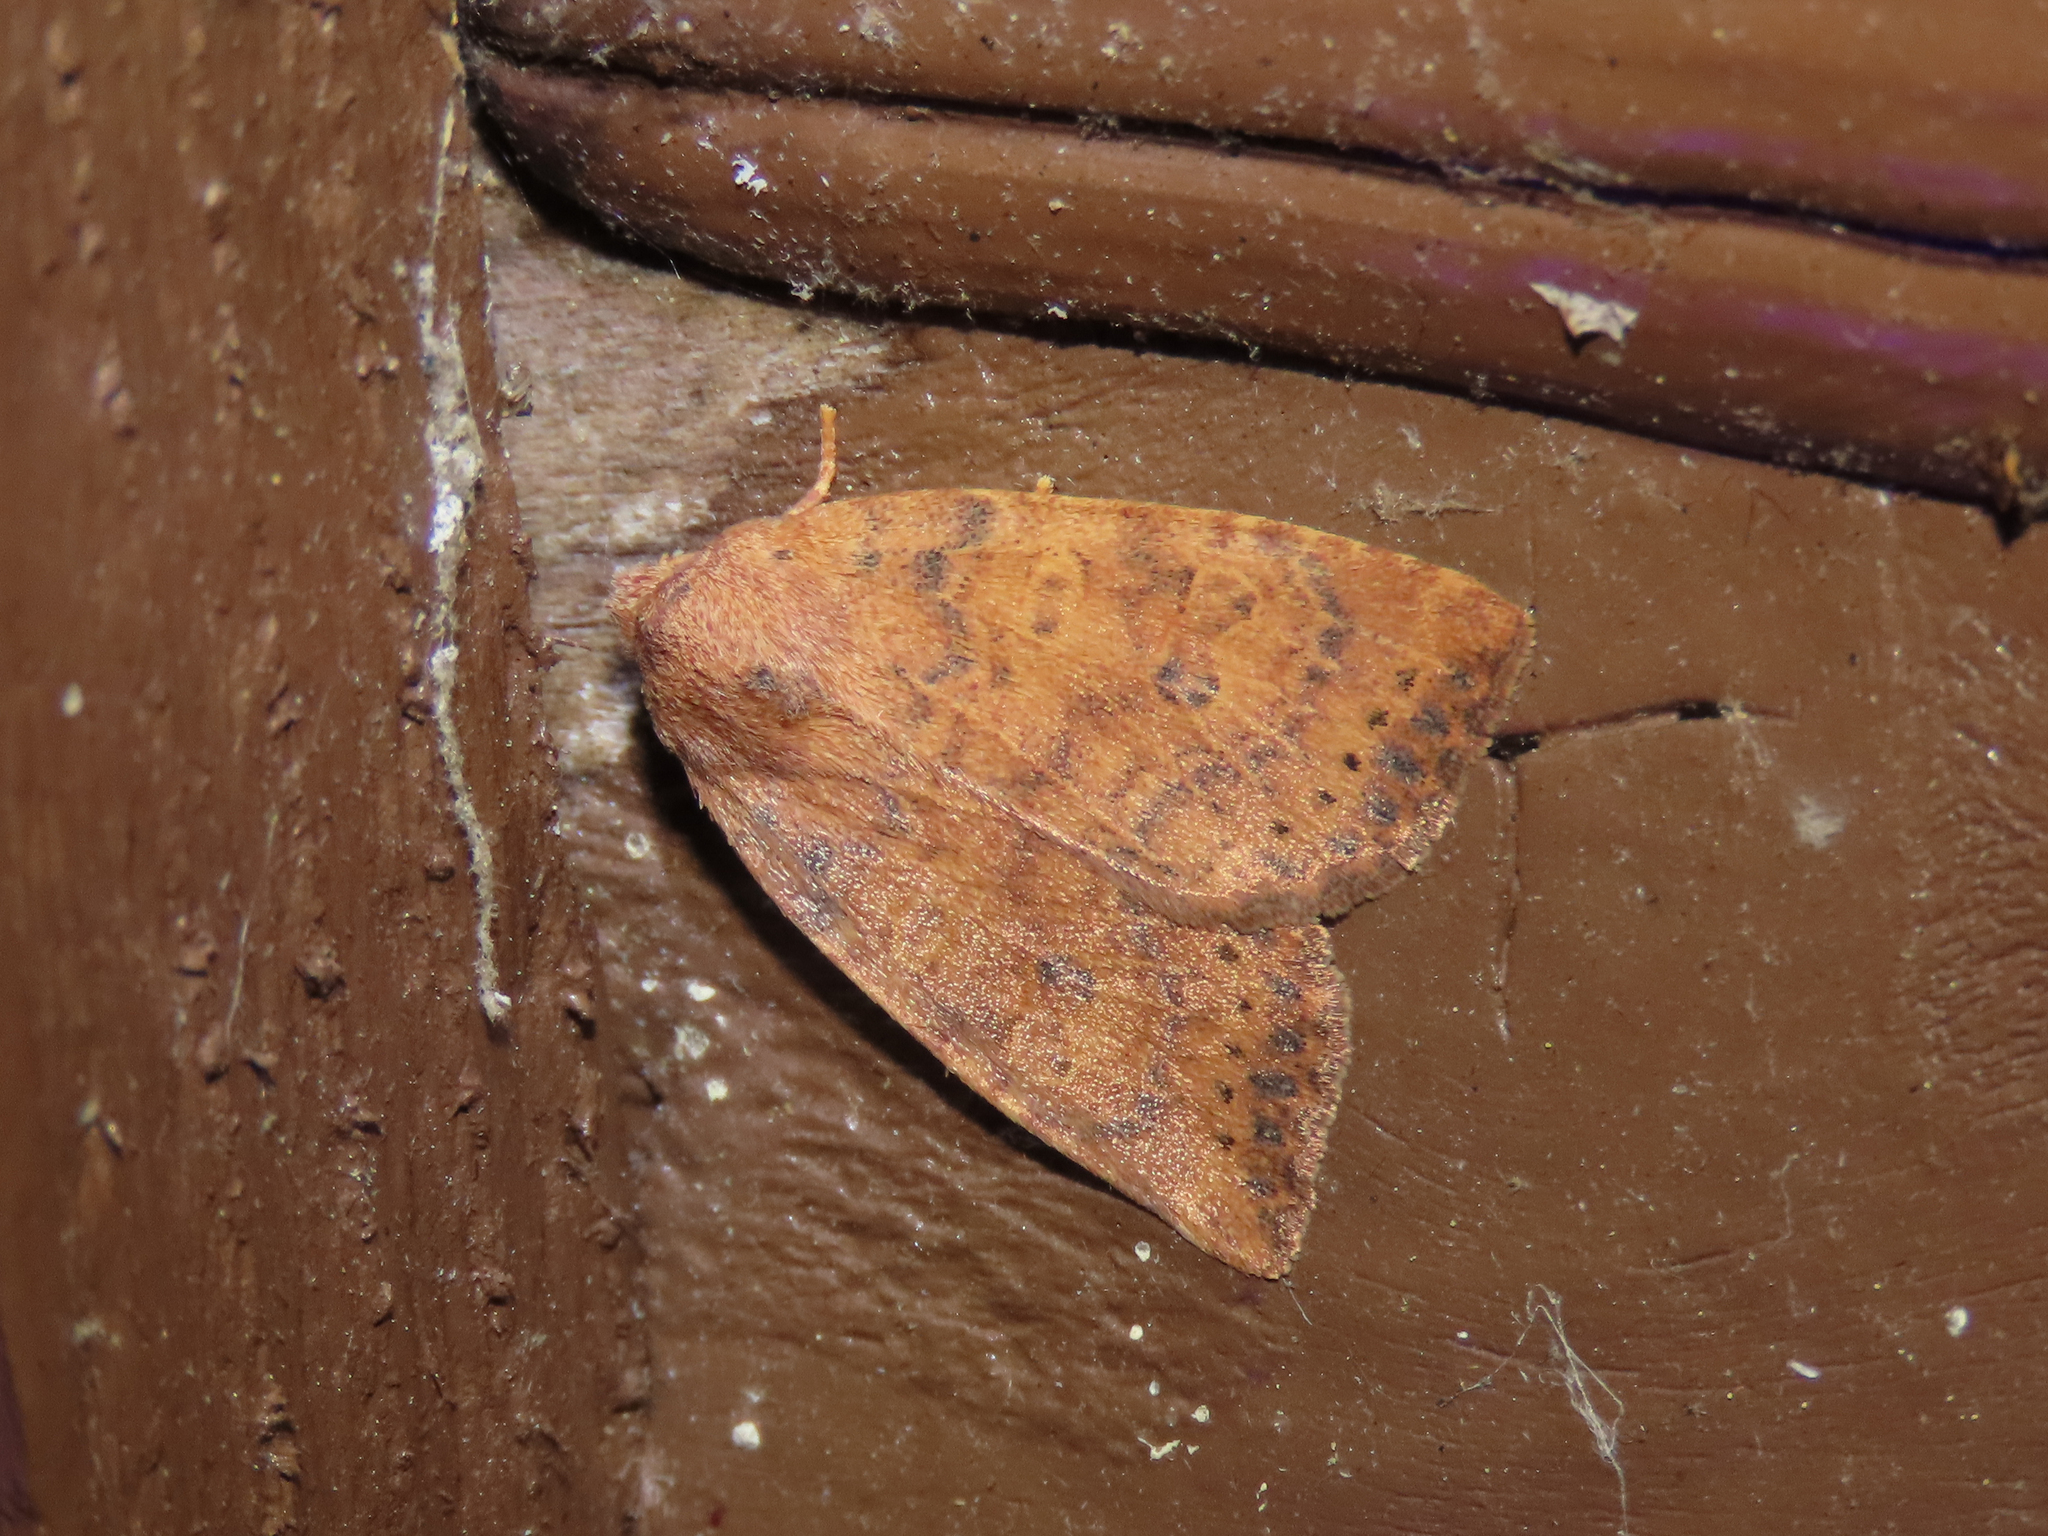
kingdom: Animalia
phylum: Arthropoda
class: Insecta
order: Lepidoptera
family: Noctuidae
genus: Anathix
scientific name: Anathix ralla
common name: Dotted sallow
